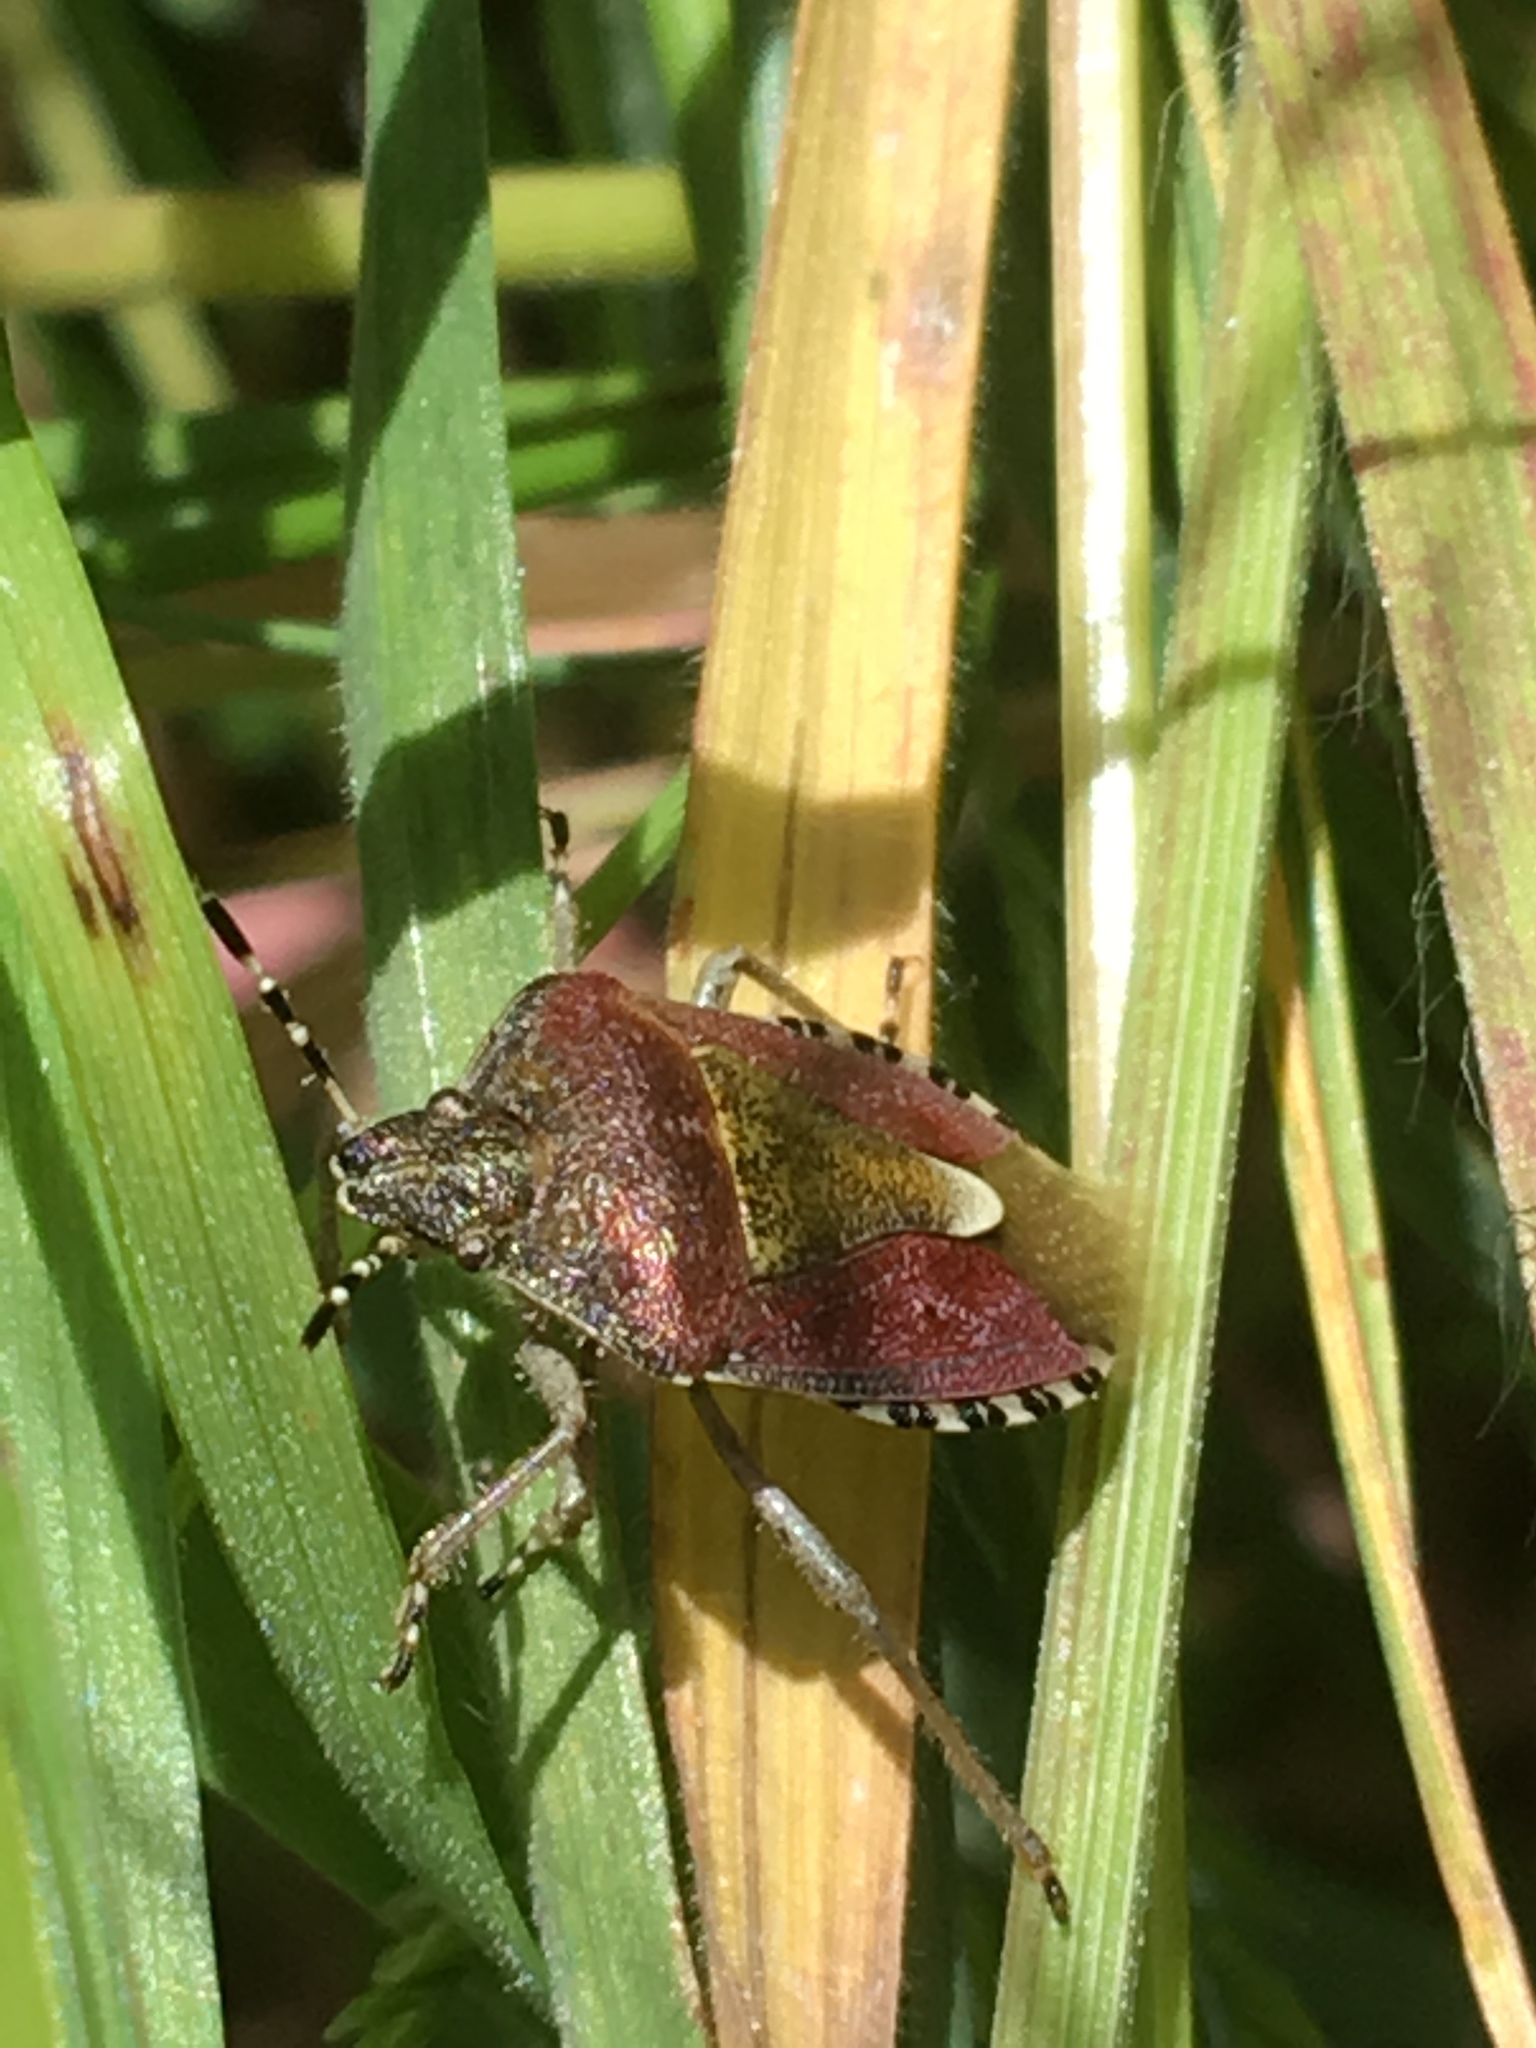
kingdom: Animalia
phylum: Arthropoda
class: Insecta
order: Hemiptera
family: Pentatomidae
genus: Dolycoris
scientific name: Dolycoris baccarum
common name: Sloe bug
